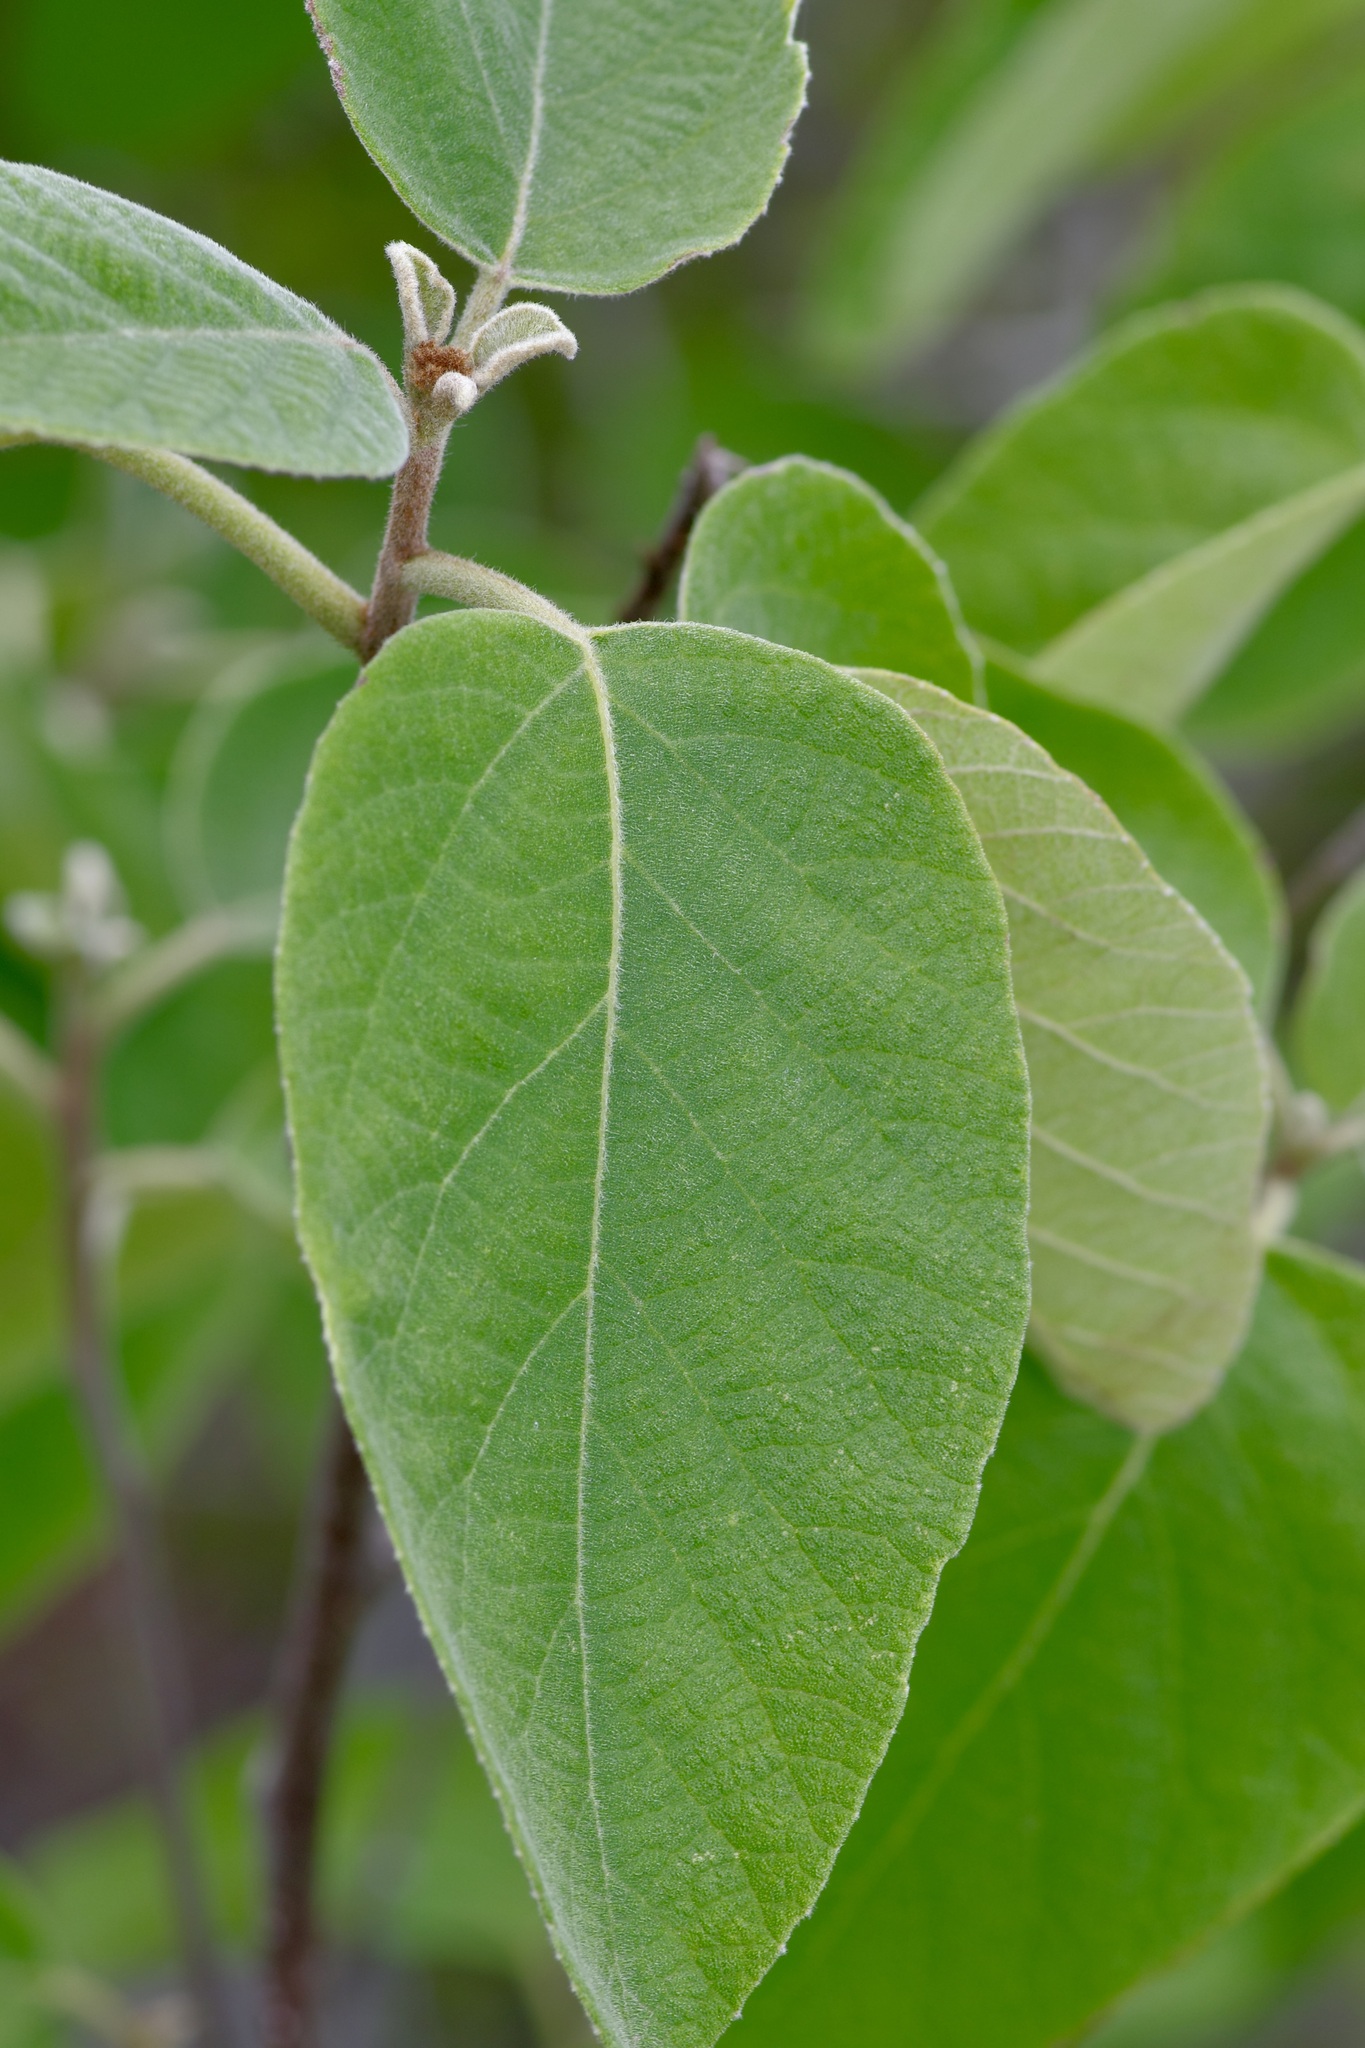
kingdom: Plantae
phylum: Tracheophyta
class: Magnoliopsida
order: Boraginales
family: Cordiaceae
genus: Cordia
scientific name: Cordia boissieri
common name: Mexican-olive
